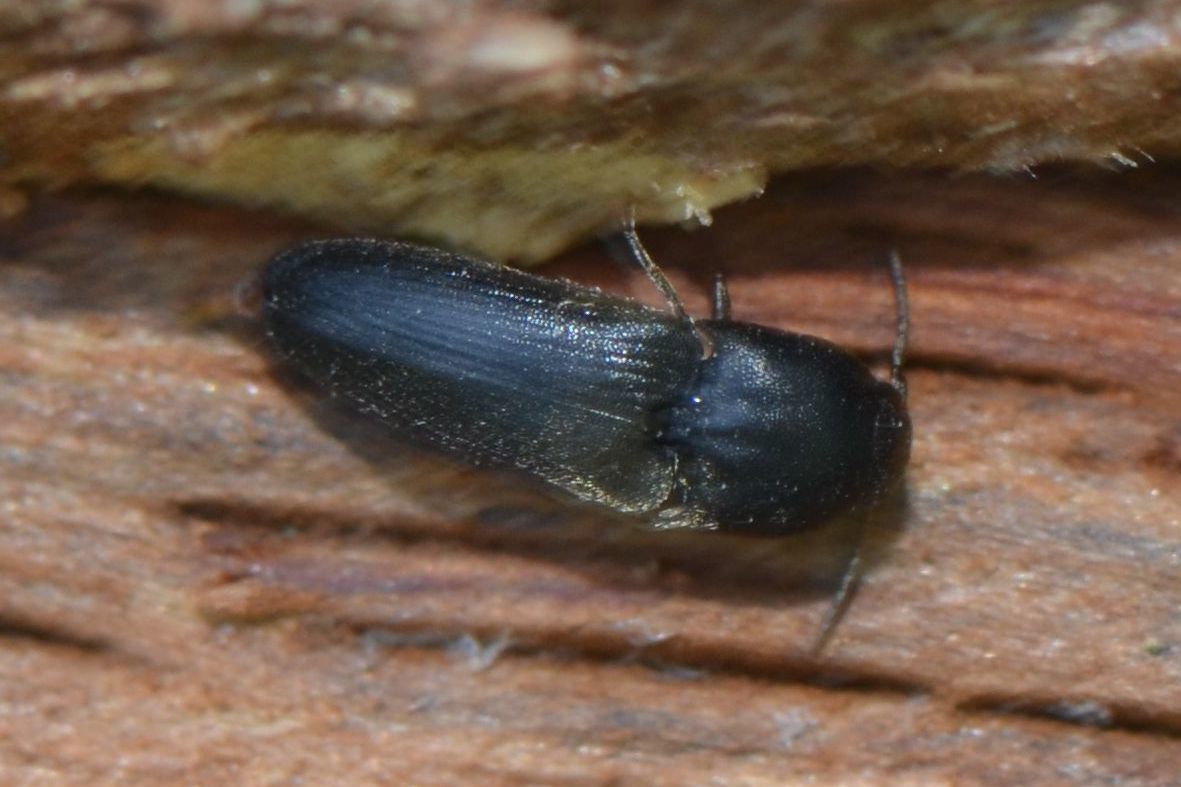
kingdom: Animalia
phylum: Arthropoda
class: Insecta
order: Coleoptera
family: Eucnemidae
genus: Dromaeolus
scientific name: Dromaeolus barnabita
